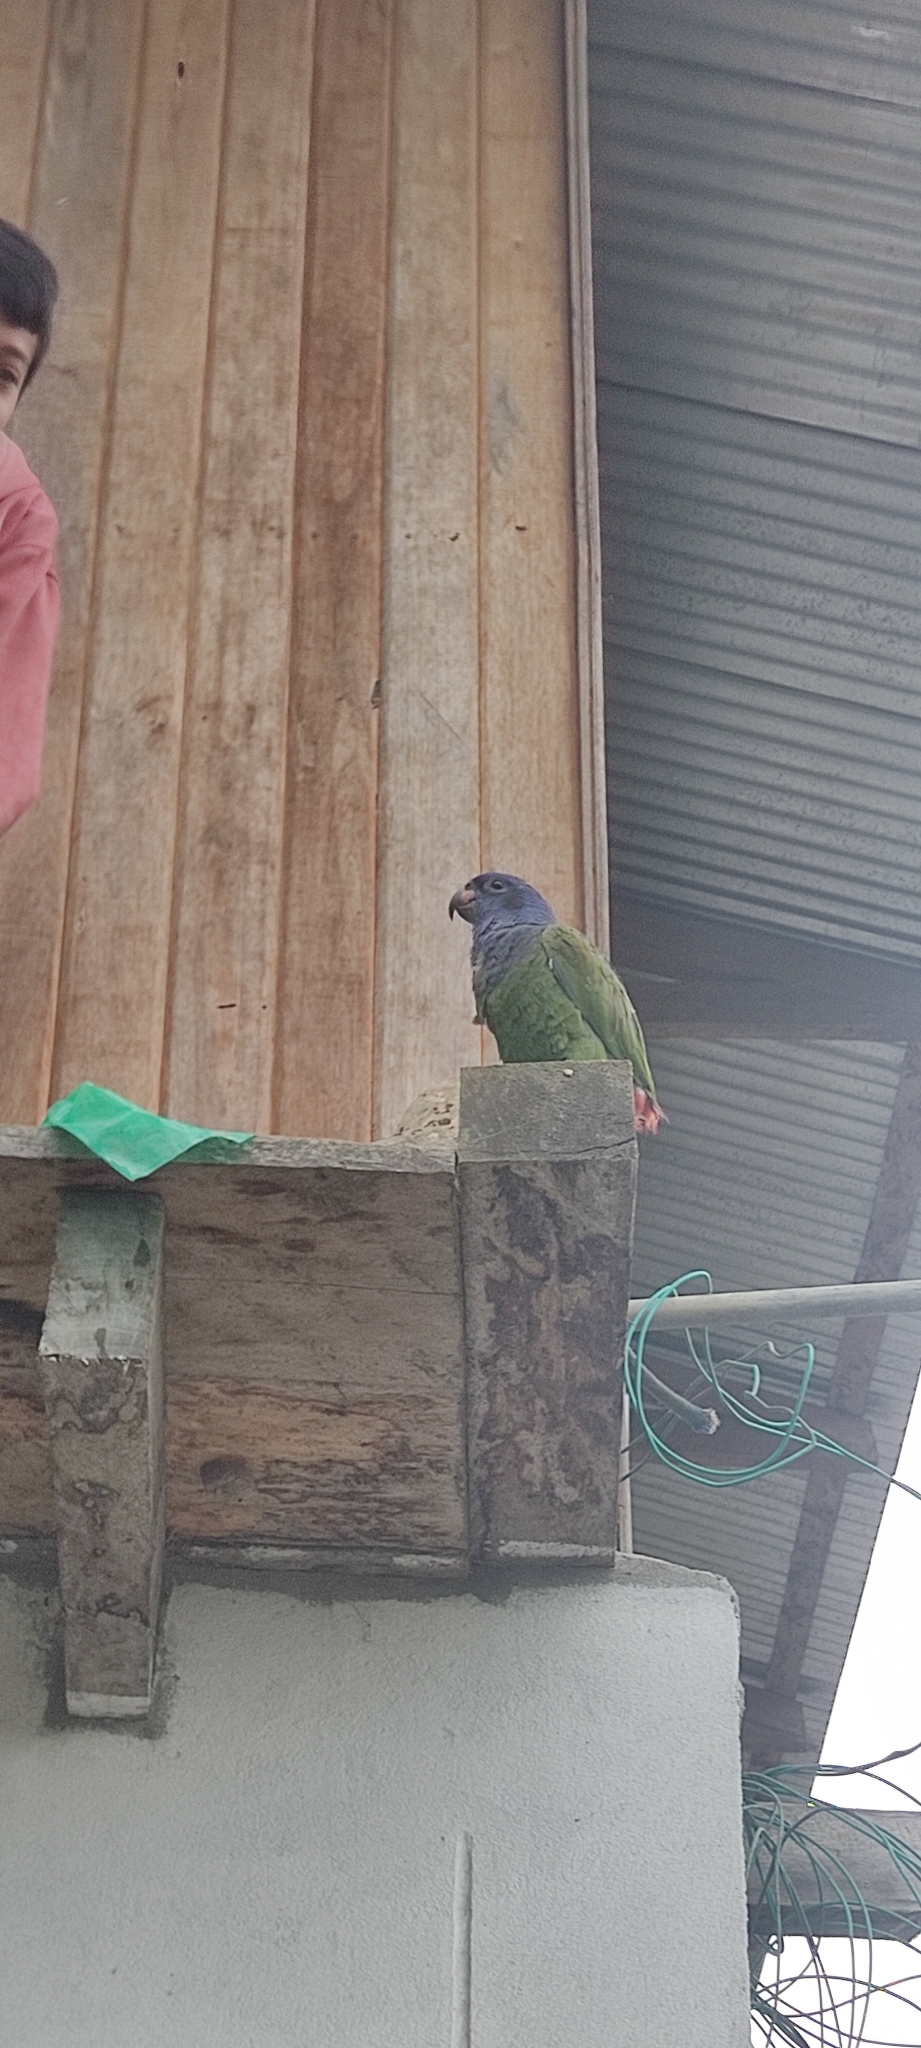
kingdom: Animalia
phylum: Chordata
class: Aves
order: Psittaciformes
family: Psittacidae
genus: Pionus
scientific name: Pionus menstruus
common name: Blue-headed parrot
